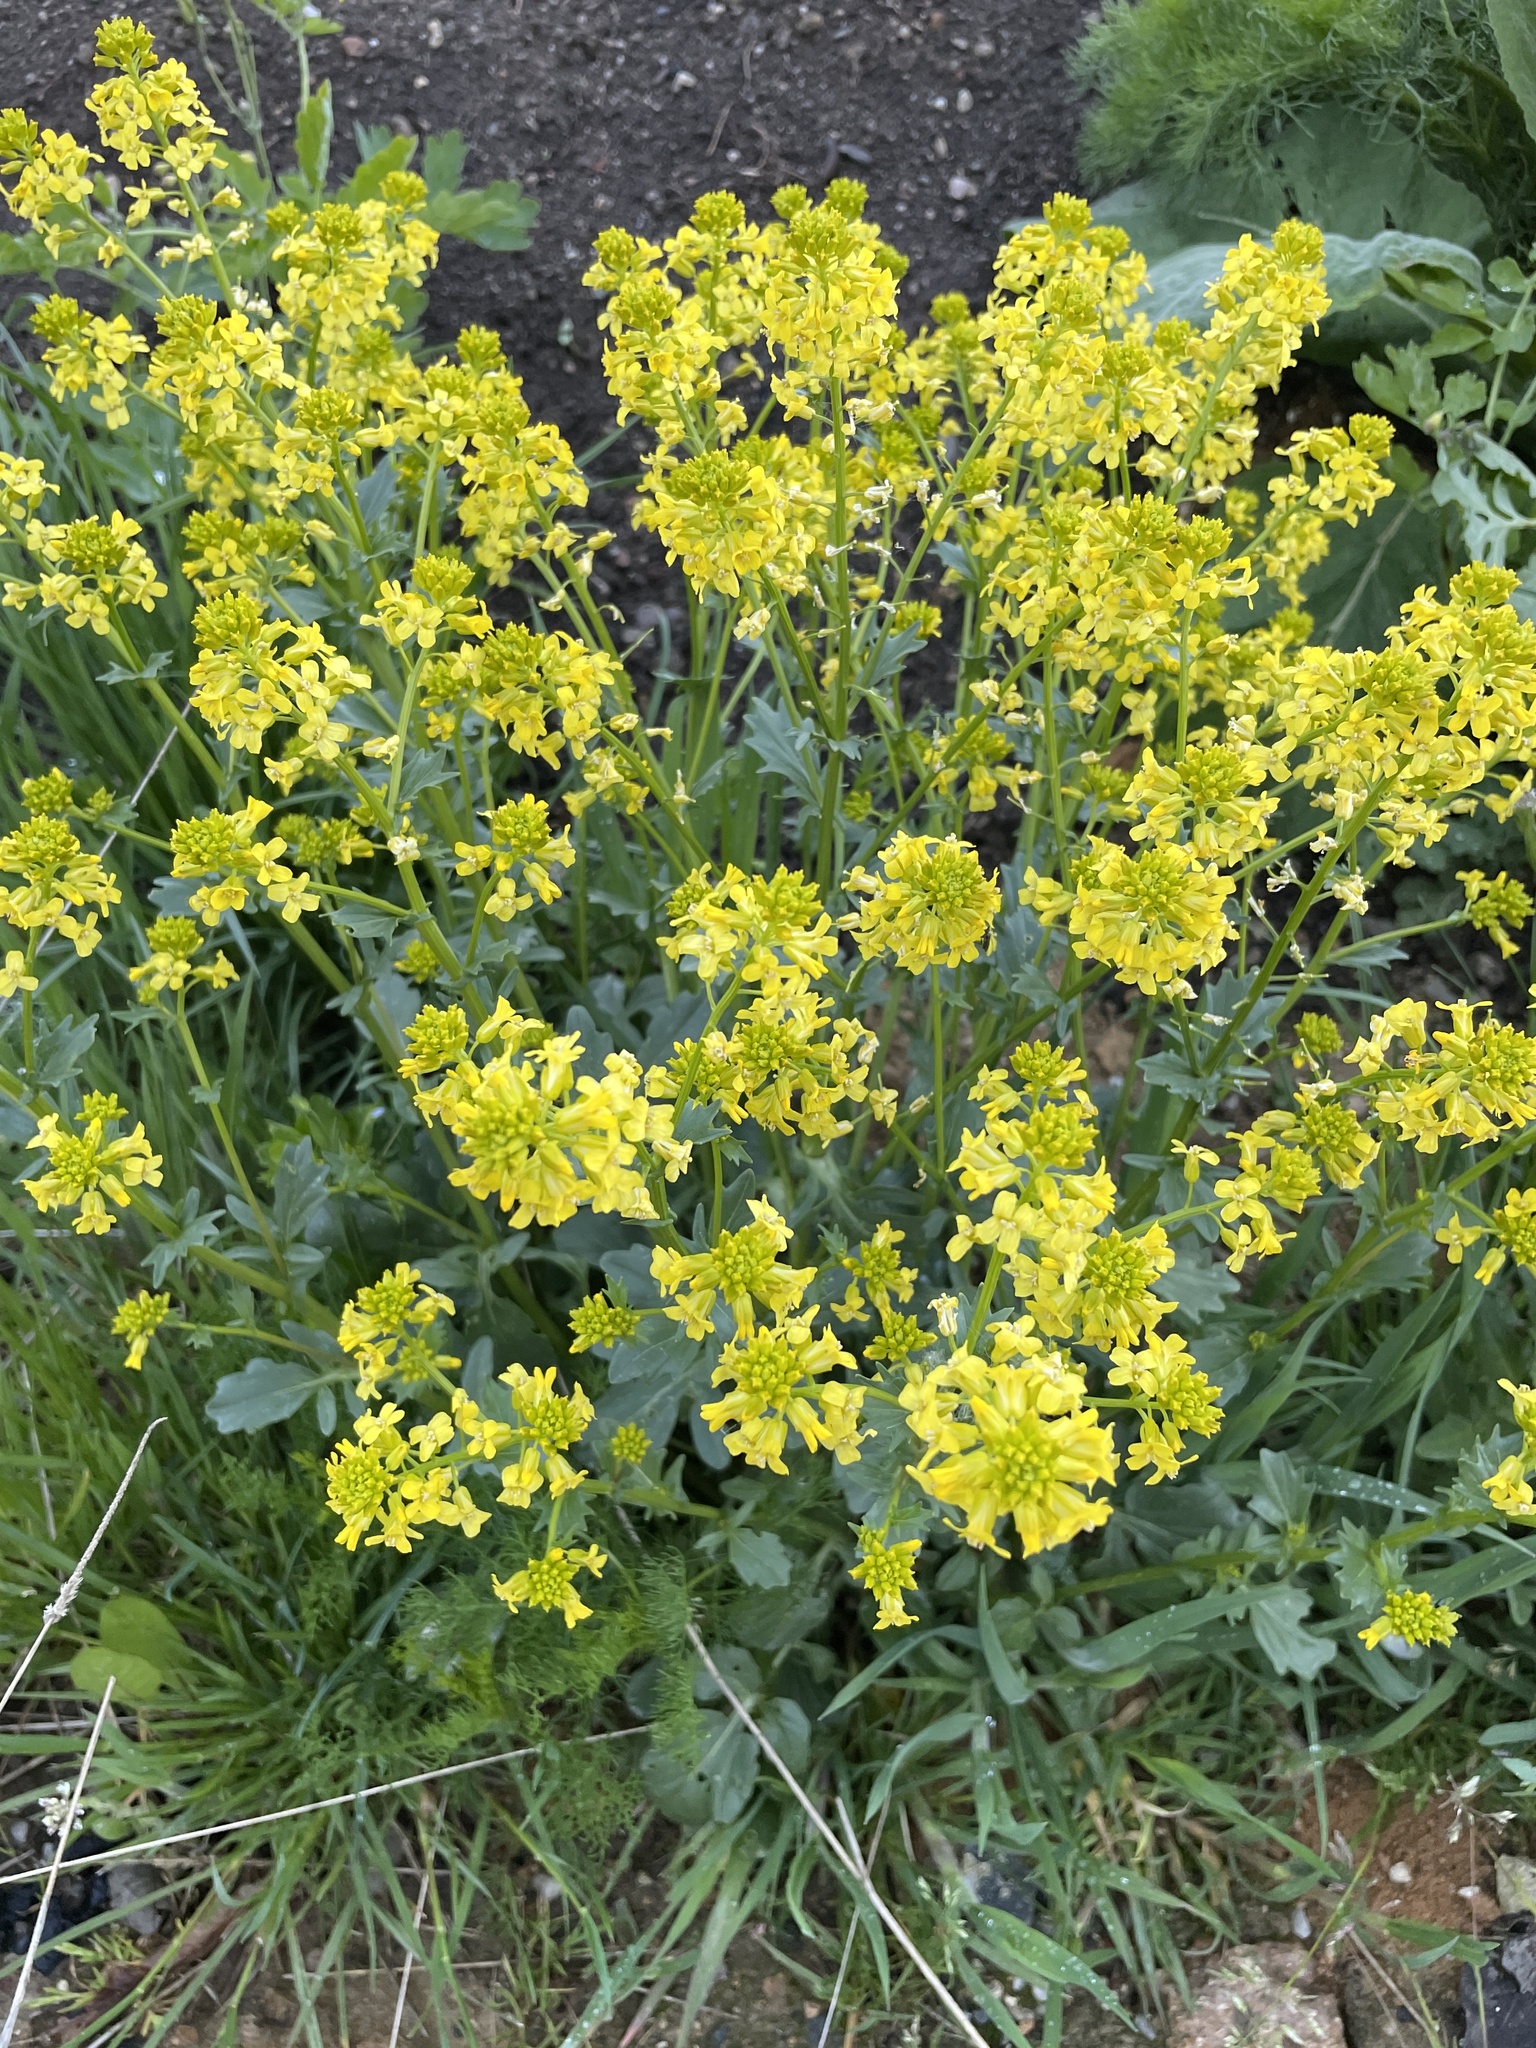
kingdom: Plantae
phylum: Tracheophyta
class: Magnoliopsida
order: Brassicales
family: Brassicaceae
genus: Barbarea
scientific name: Barbarea vulgaris
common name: Cressy-greens
